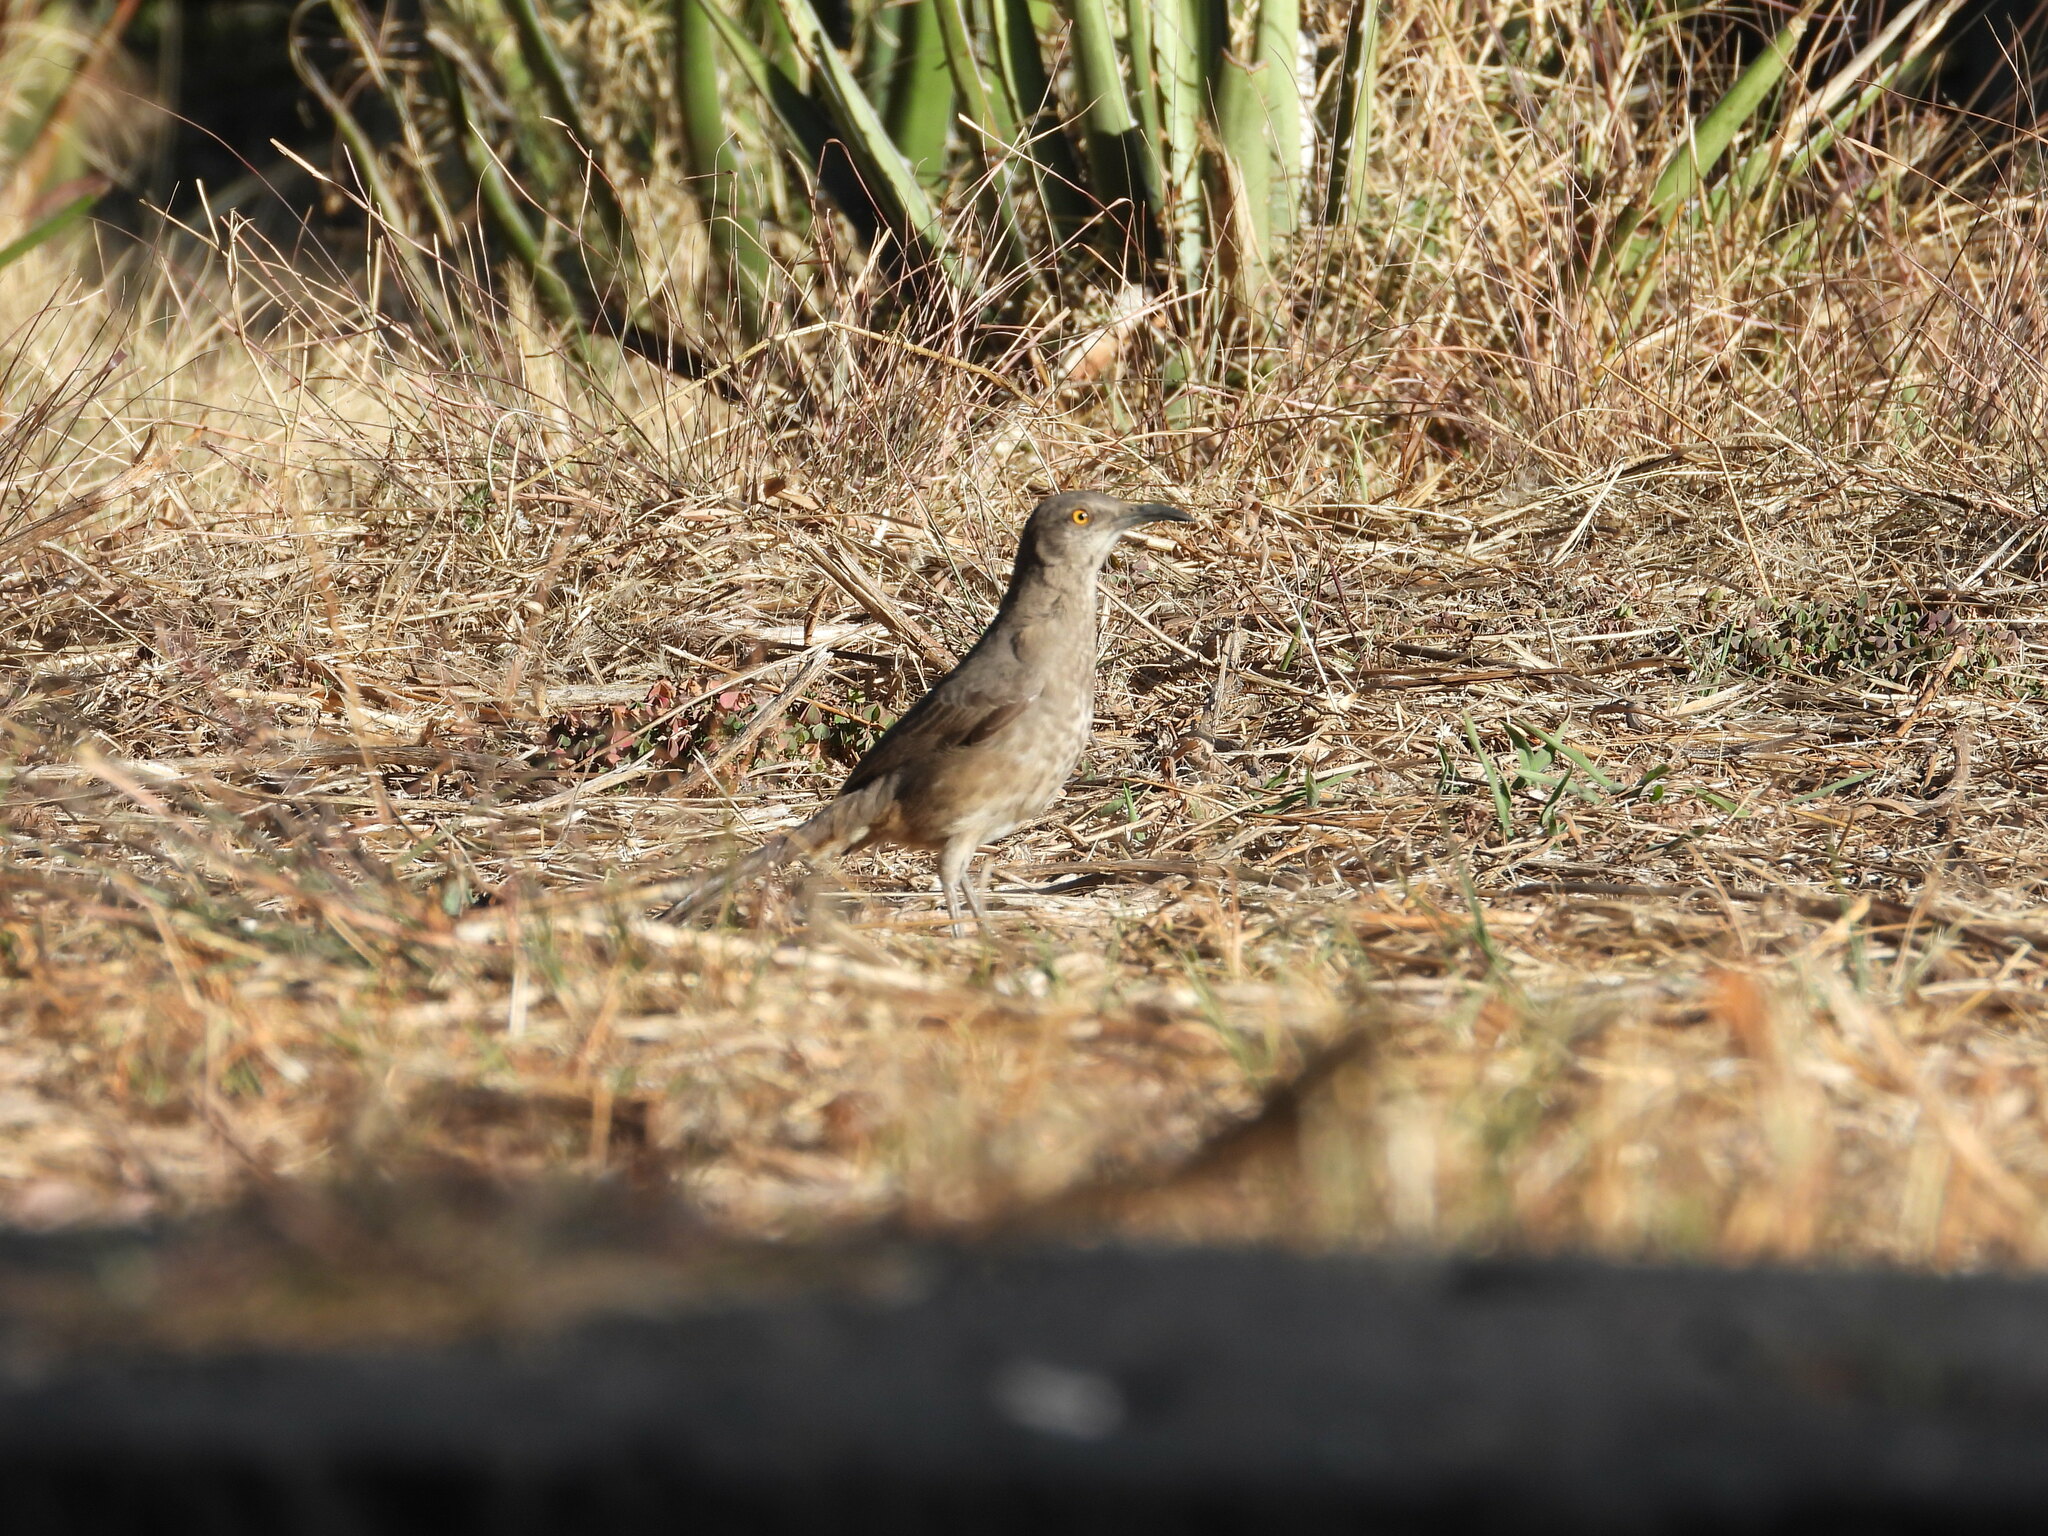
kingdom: Animalia
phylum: Chordata
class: Aves
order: Passeriformes
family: Mimidae
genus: Toxostoma
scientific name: Toxostoma curvirostre
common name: Curve-billed thrasher
